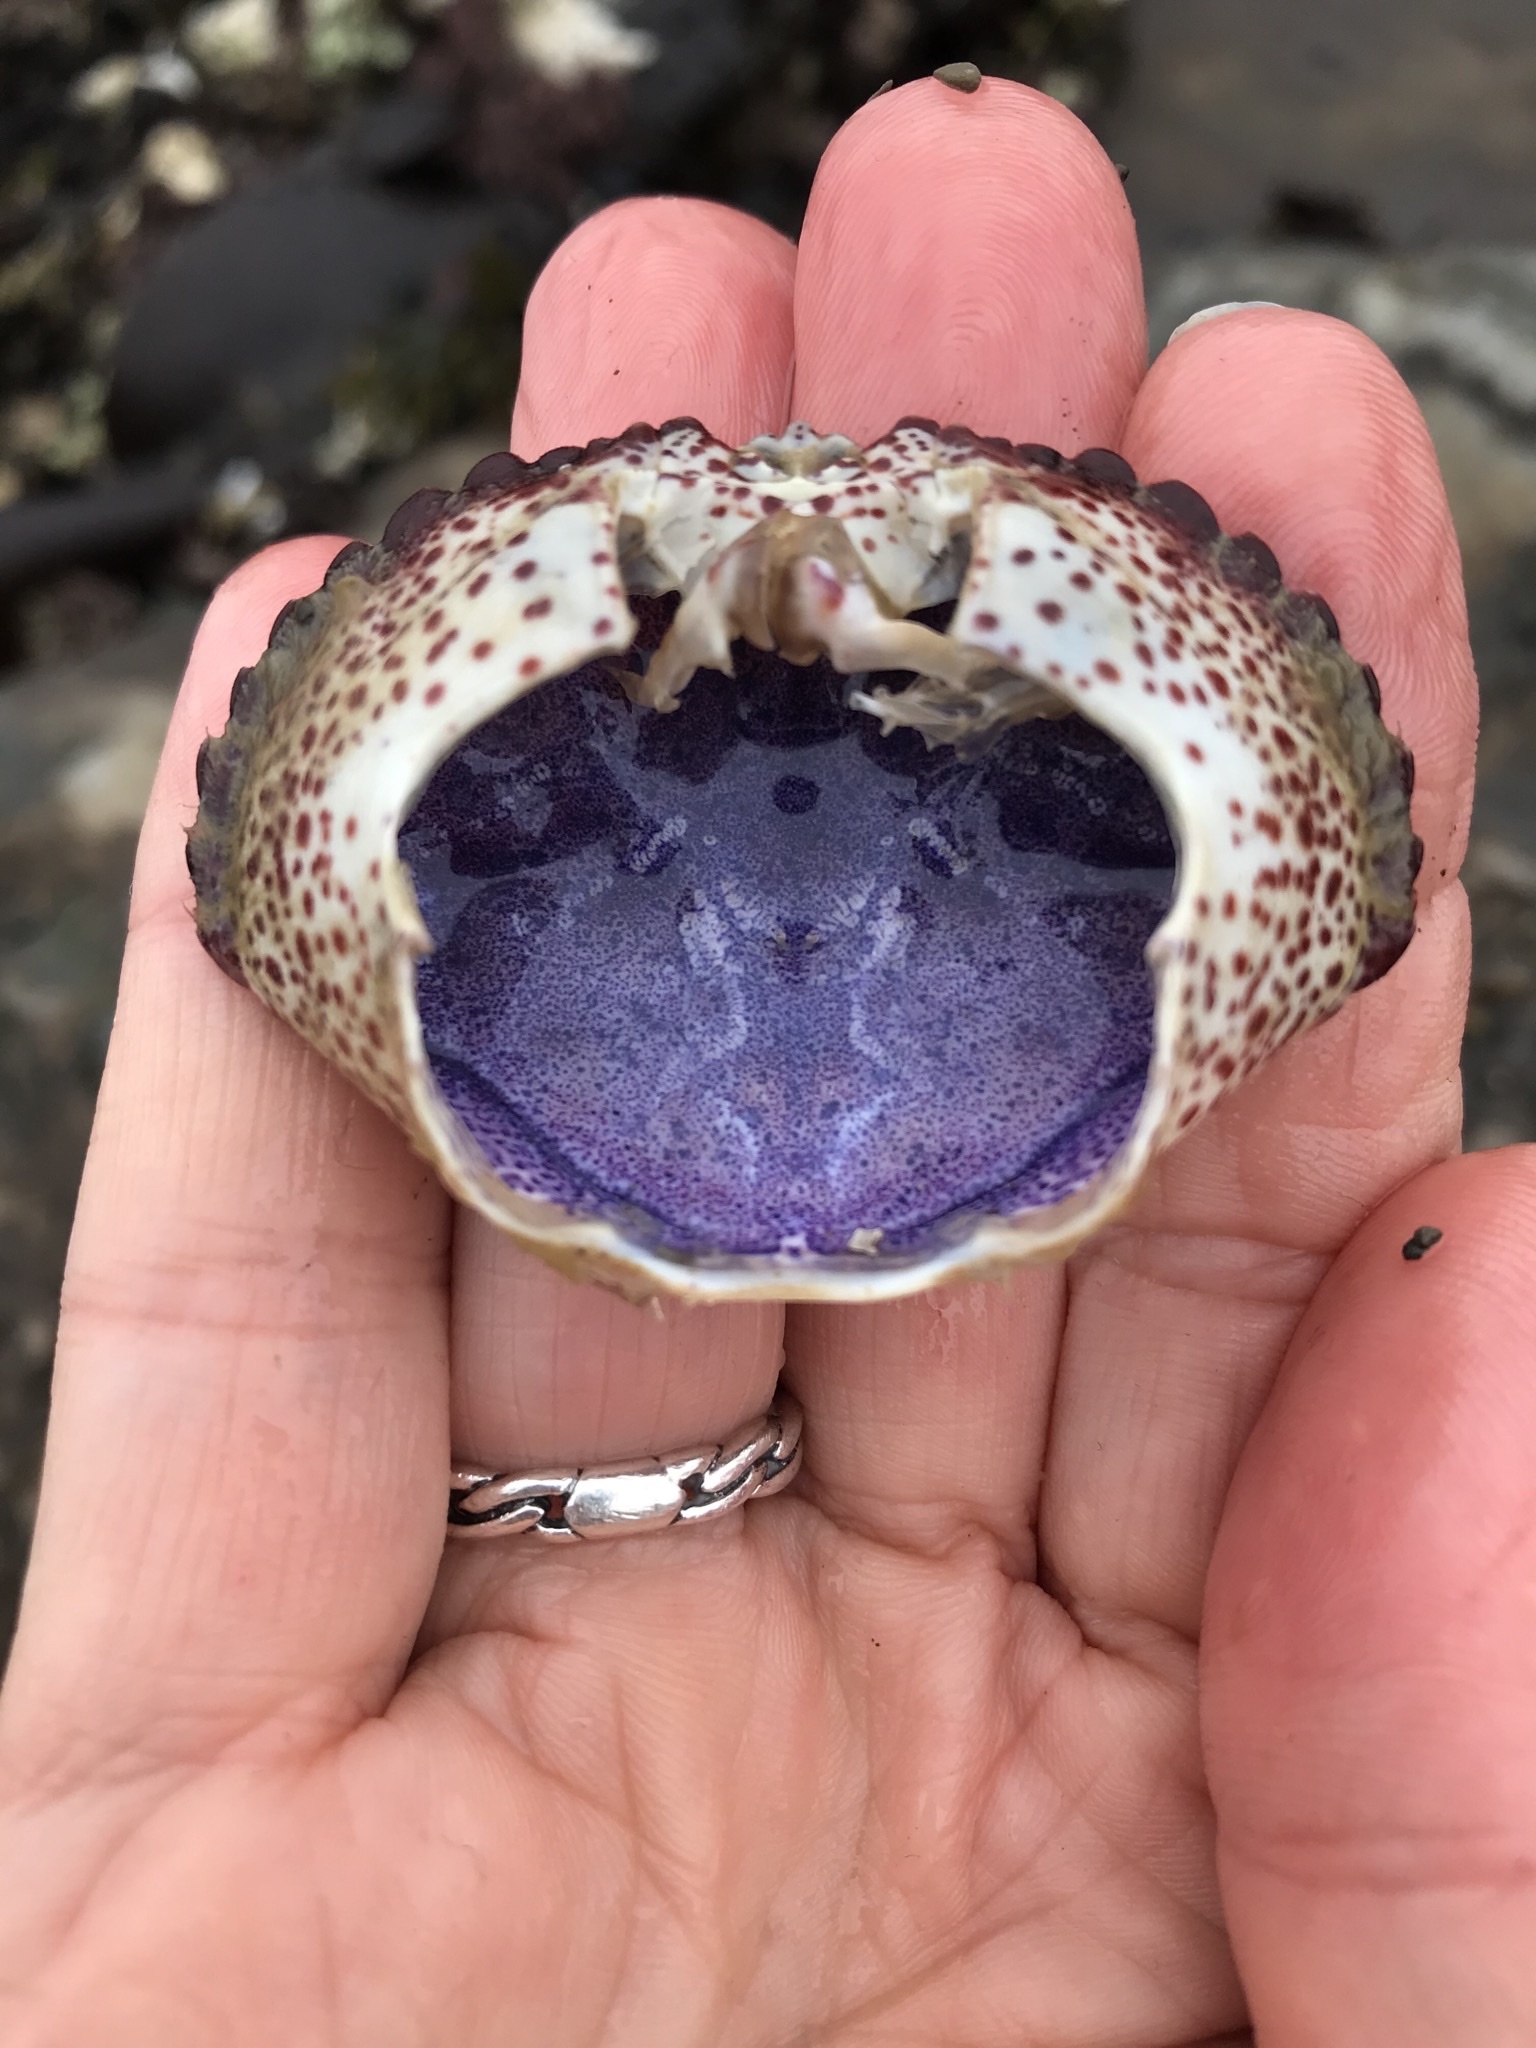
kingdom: Animalia
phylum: Arthropoda
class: Malacostraca
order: Decapoda
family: Cancridae
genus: Romaleon
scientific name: Romaleon antennarium
